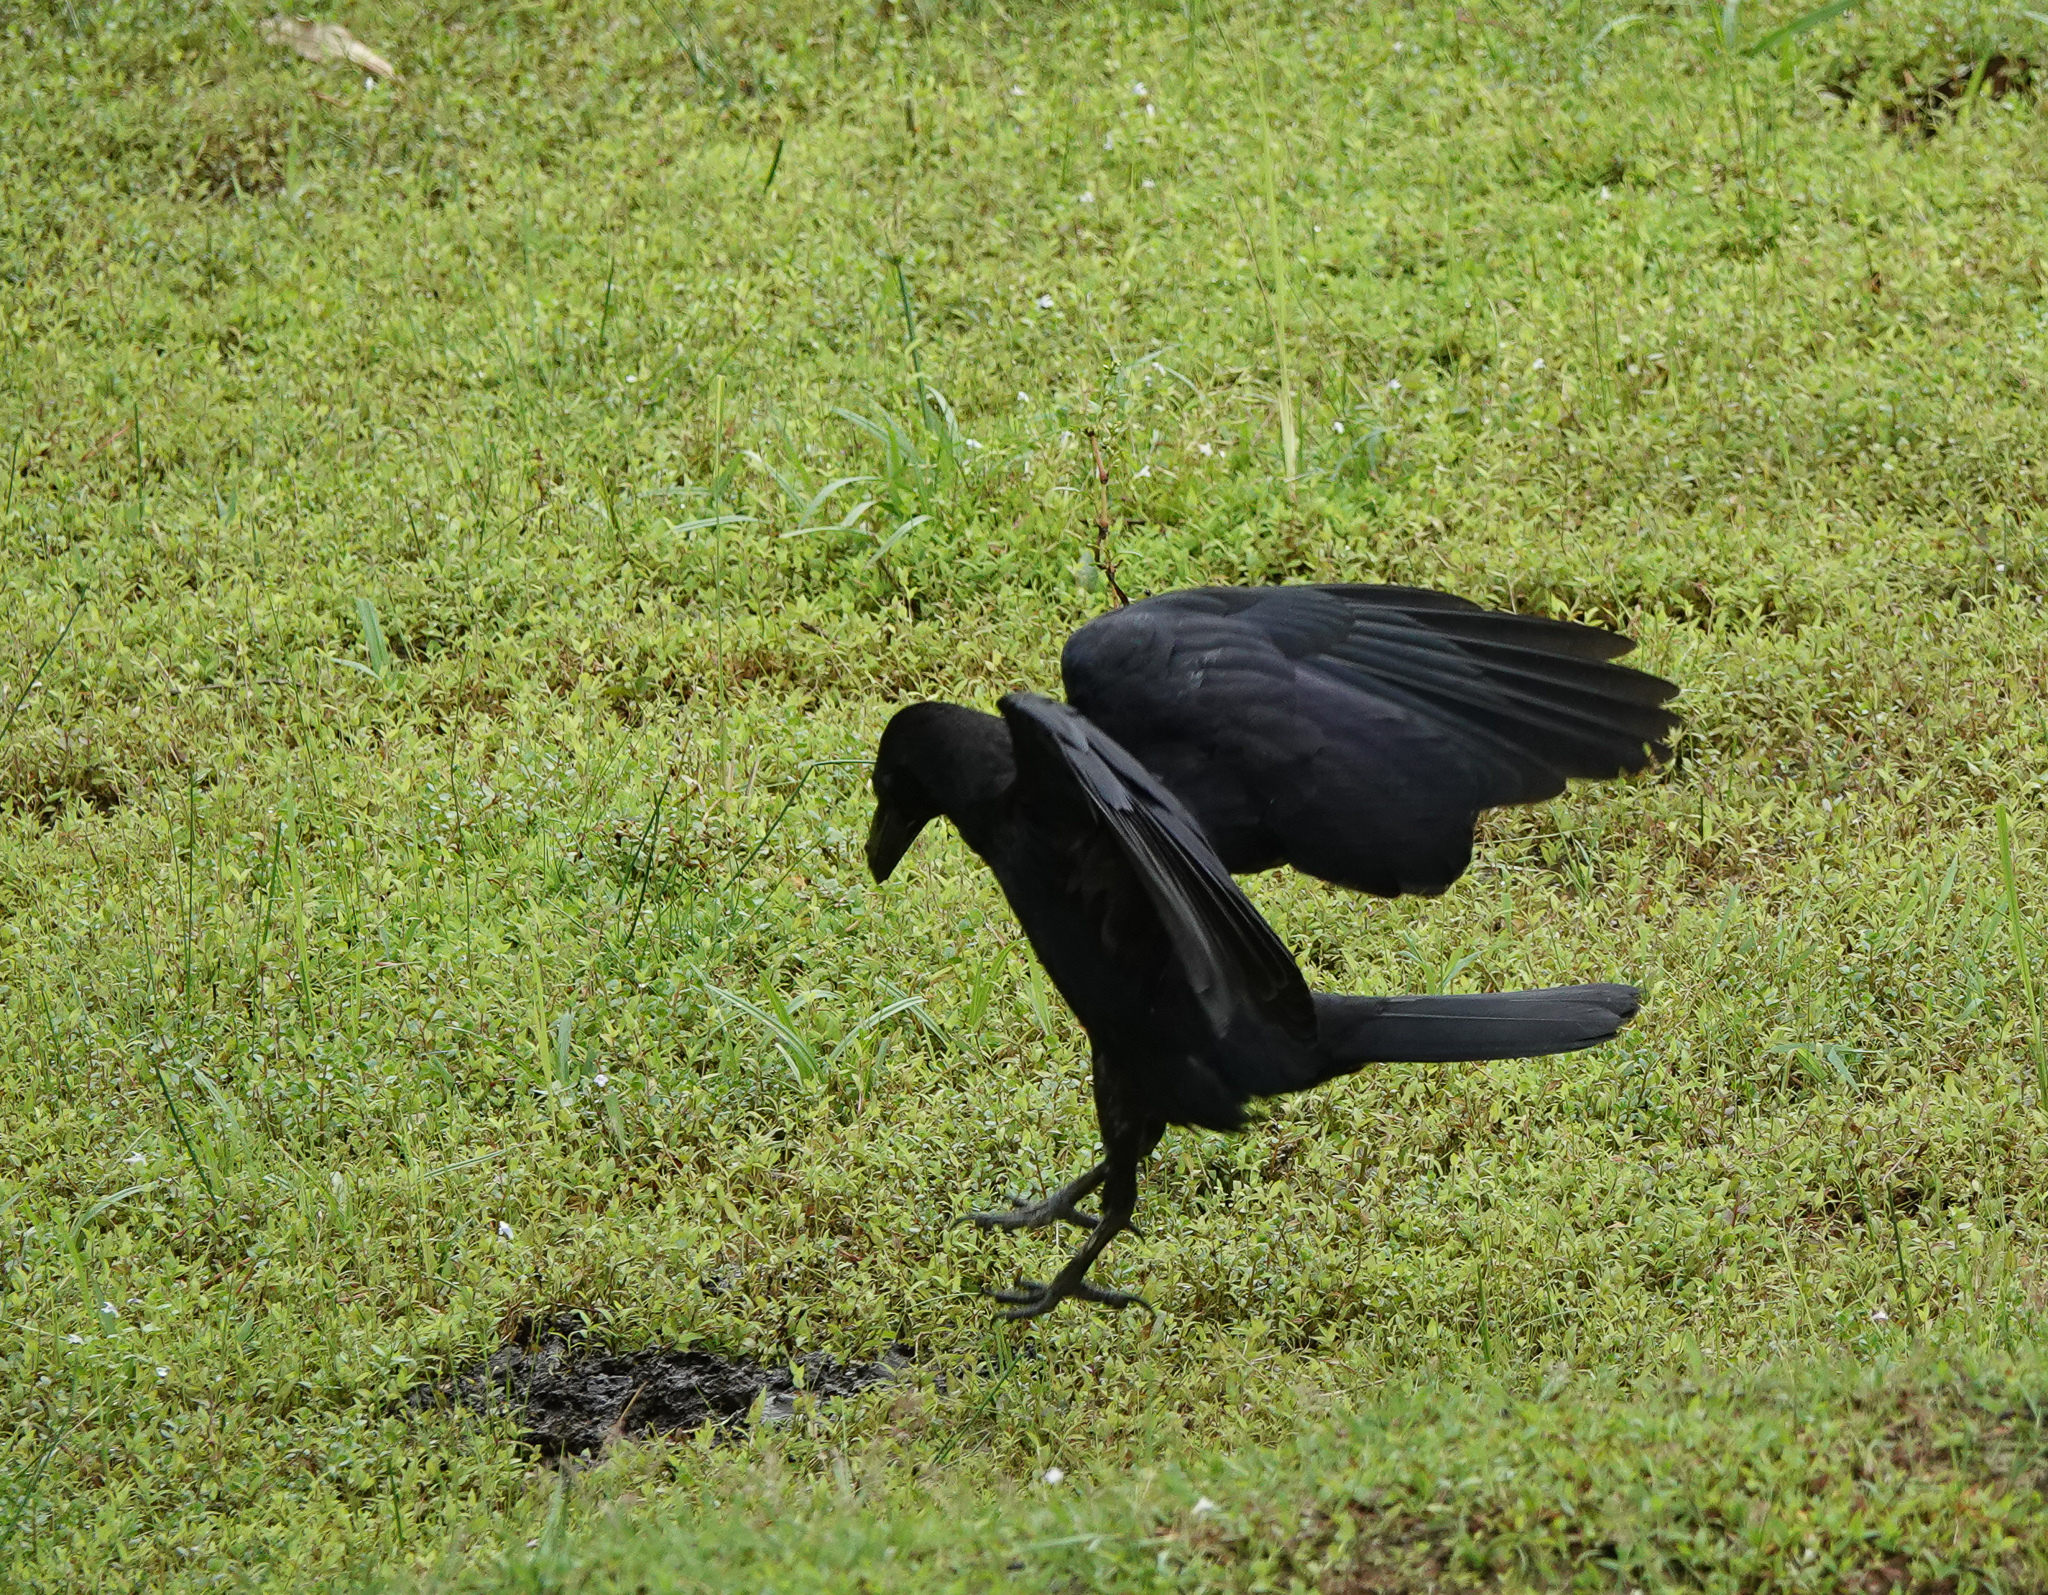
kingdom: Animalia
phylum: Chordata
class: Aves
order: Passeriformes
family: Corvidae
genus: Corvus
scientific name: Corvus macrorhynchos
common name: Large-billed crow
